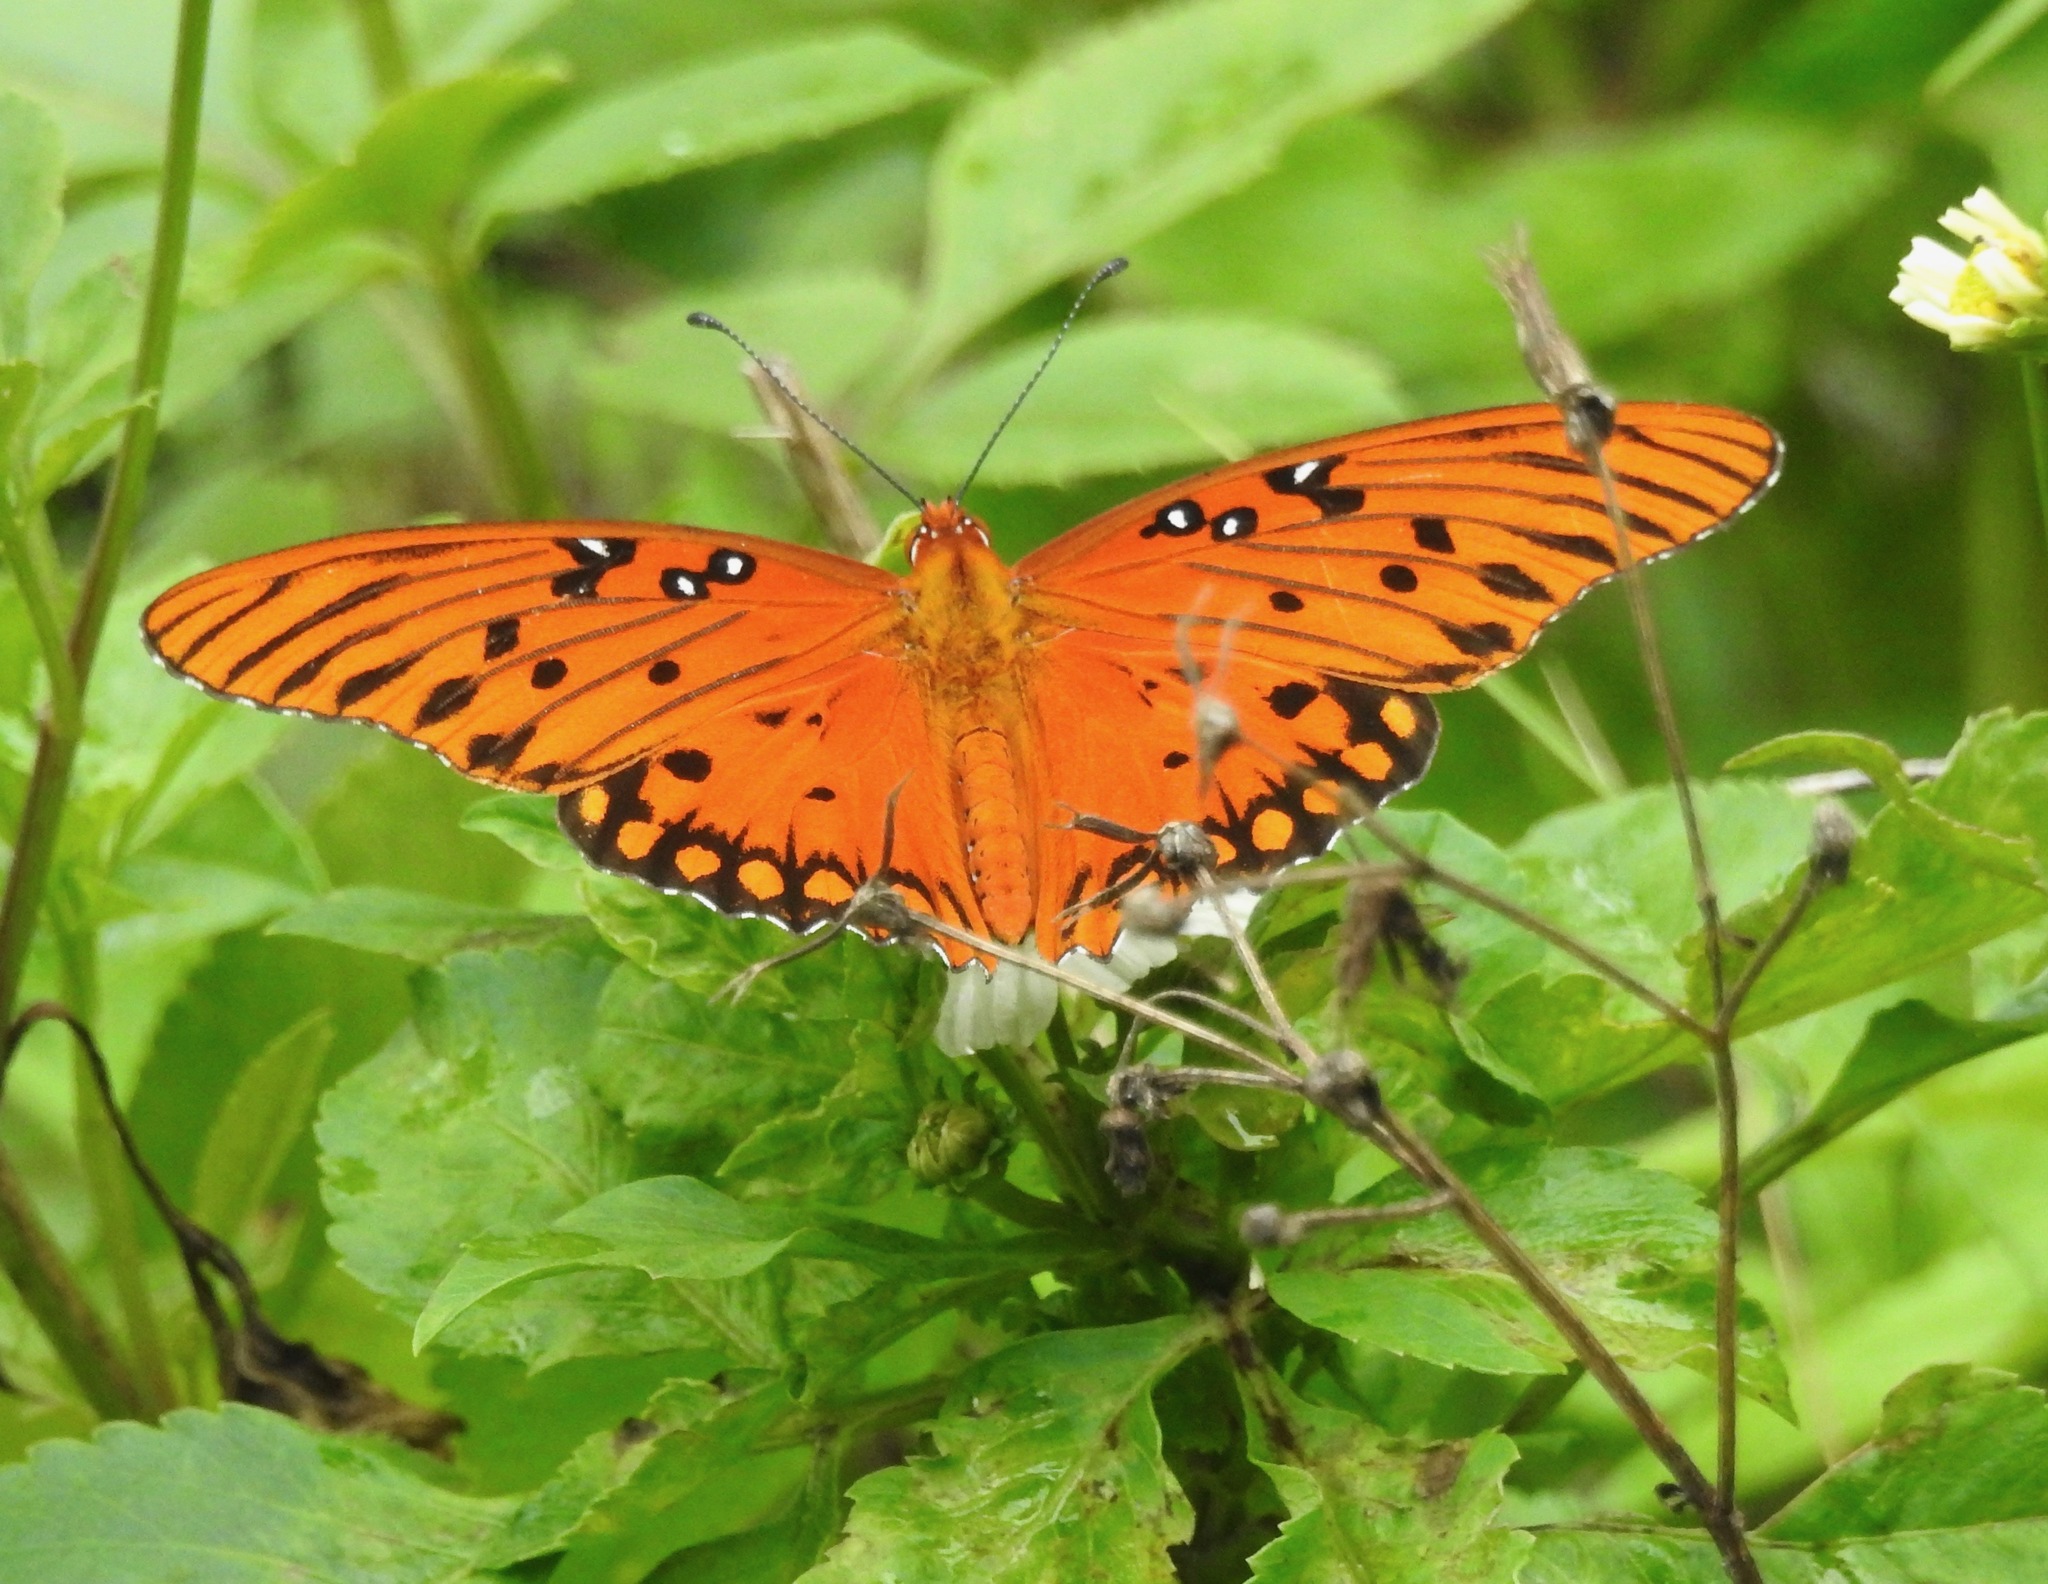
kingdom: Animalia
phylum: Arthropoda
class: Insecta
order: Lepidoptera
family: Nymphalidae
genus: Dione
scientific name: Dione vanillae
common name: Gulf fritillary
